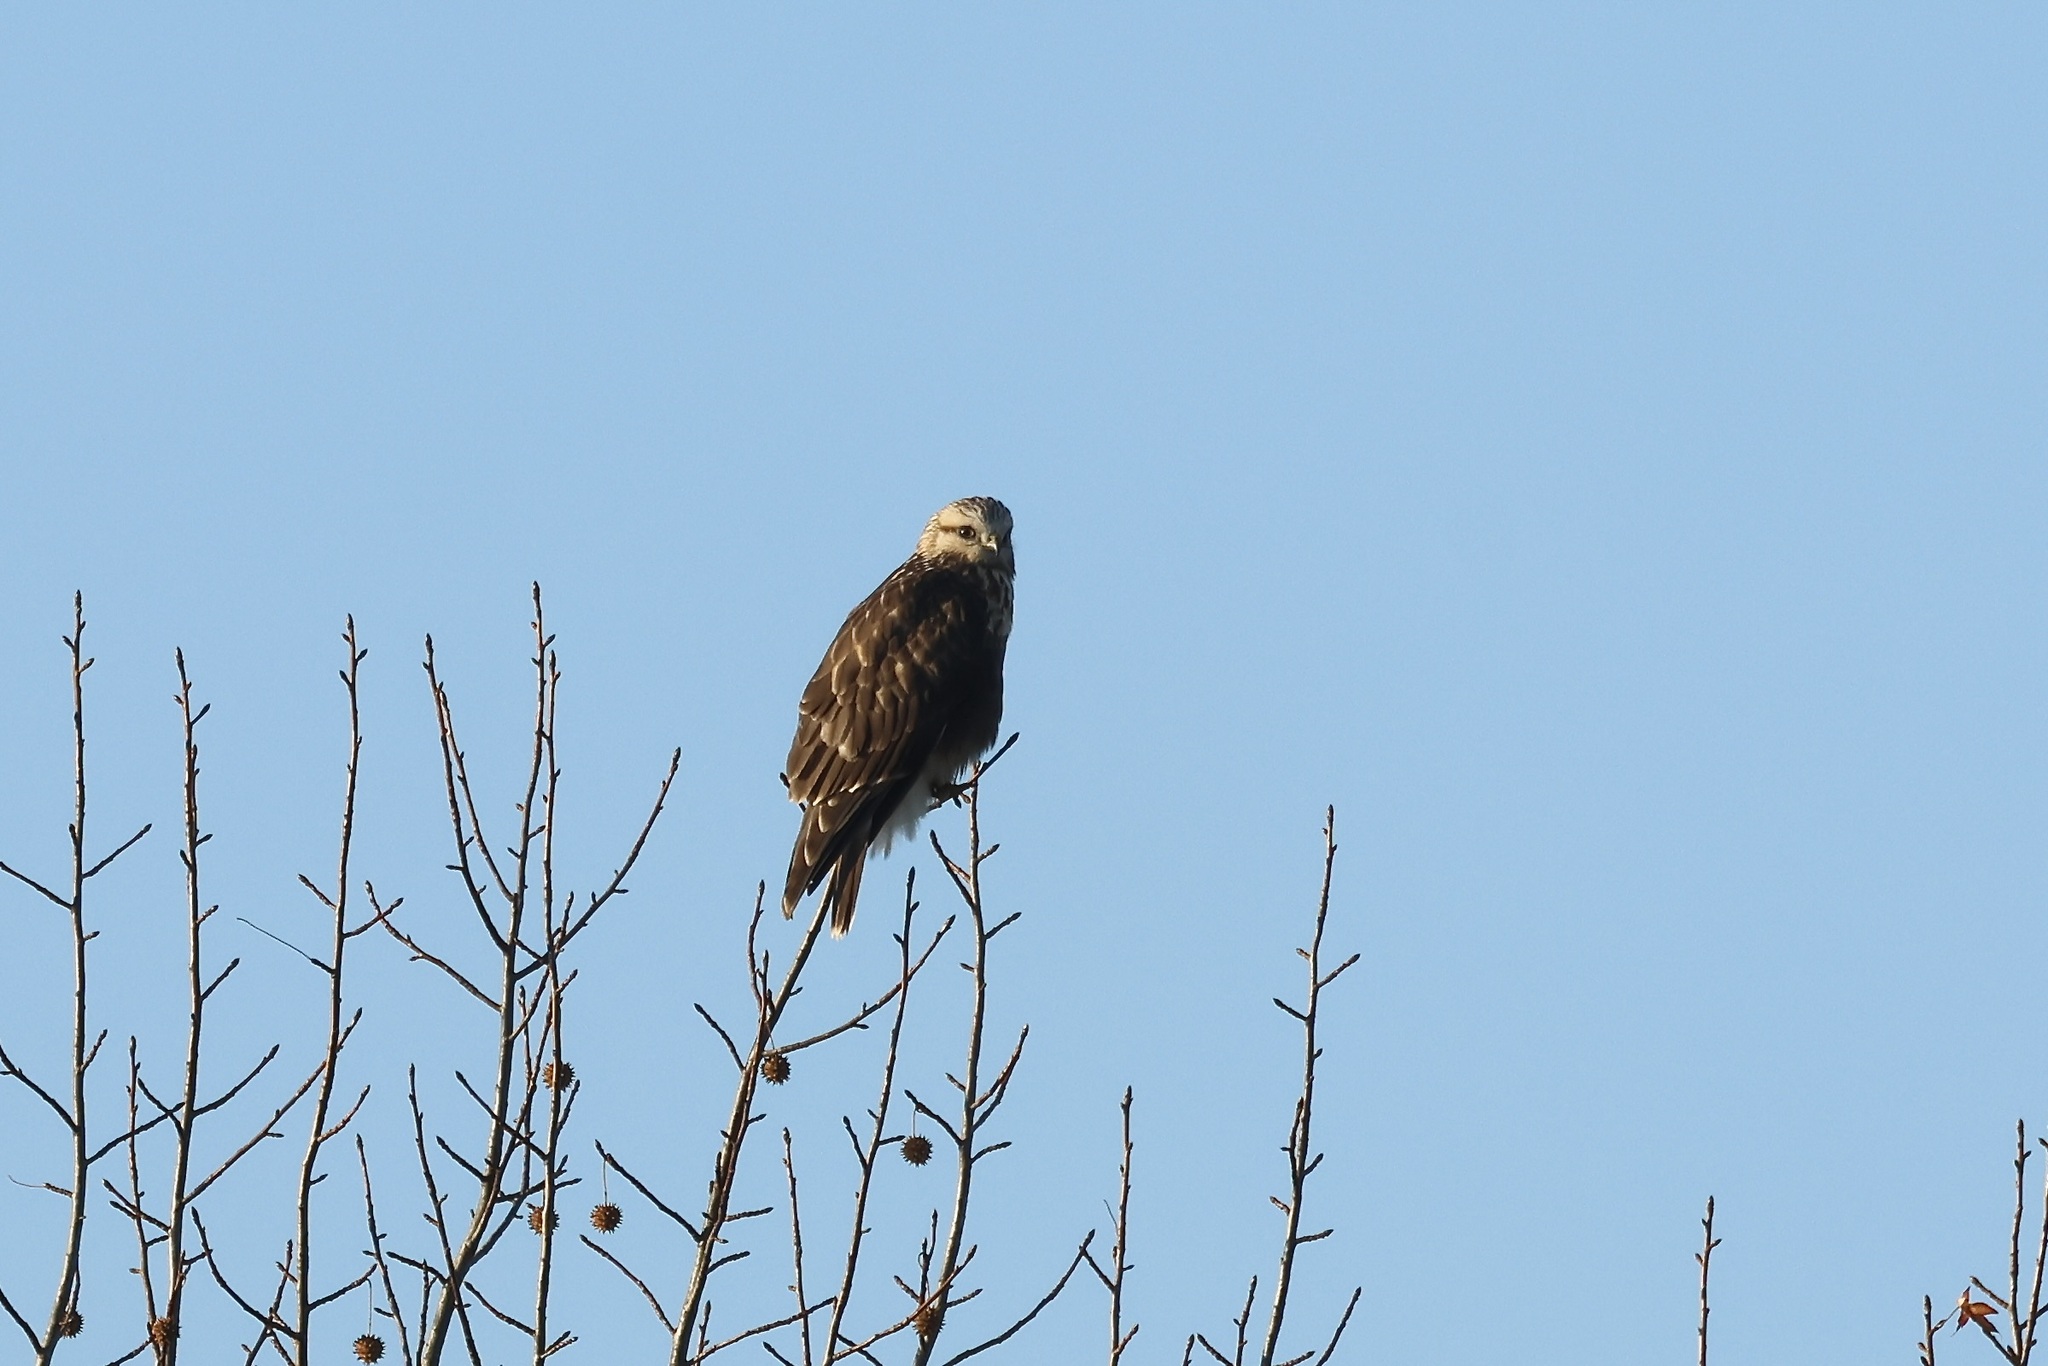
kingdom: Animalia
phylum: Chordata
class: Aves
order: Accipitriformes
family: Accipitridae
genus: Buteo
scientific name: Buteo lagopus
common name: Rough-legged buzzard
